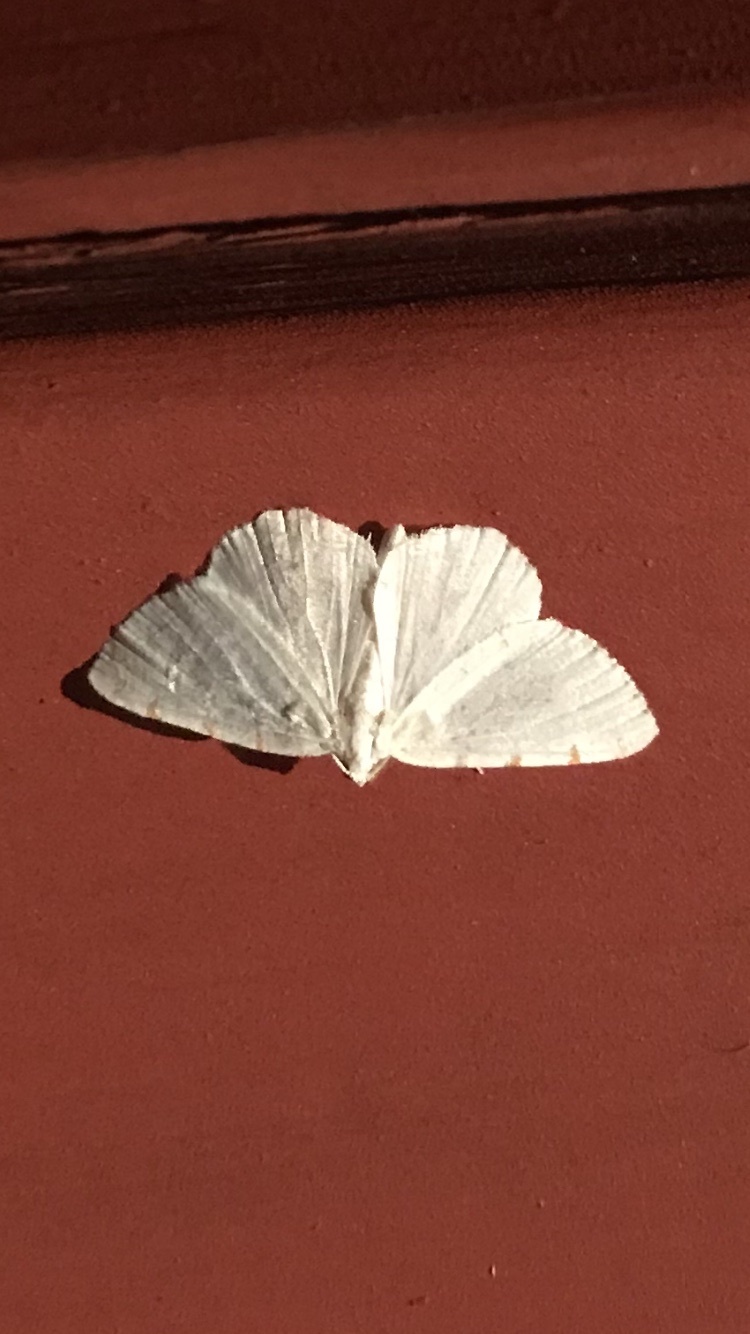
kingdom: Animalia
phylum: Arthropoda
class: Insecta
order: Lepidoptera
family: Geometridae
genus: Macaria
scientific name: Macaria pustularia
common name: Lesser maple spanworm moth
